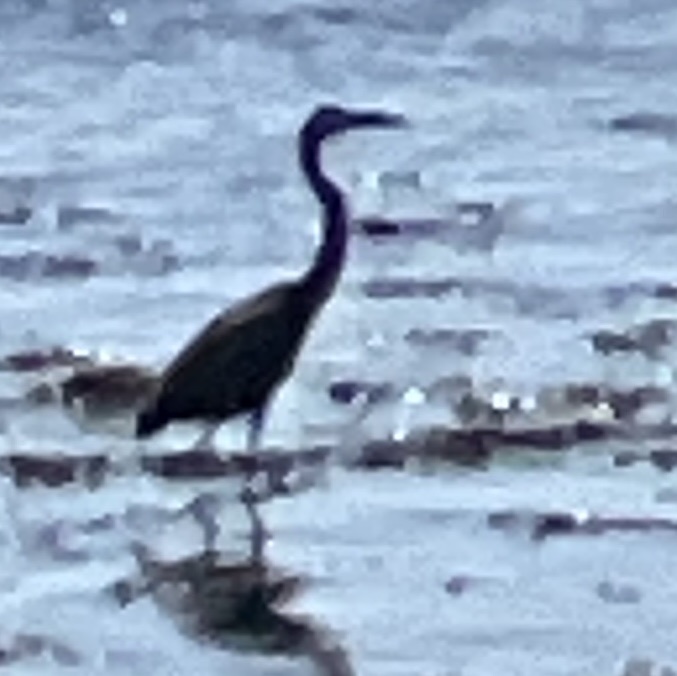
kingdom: Animalia
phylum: Chordata
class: Aves
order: Pelecaniformes
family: Ardeidae
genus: Ardea
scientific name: Ardea herodias
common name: Great blue heron
